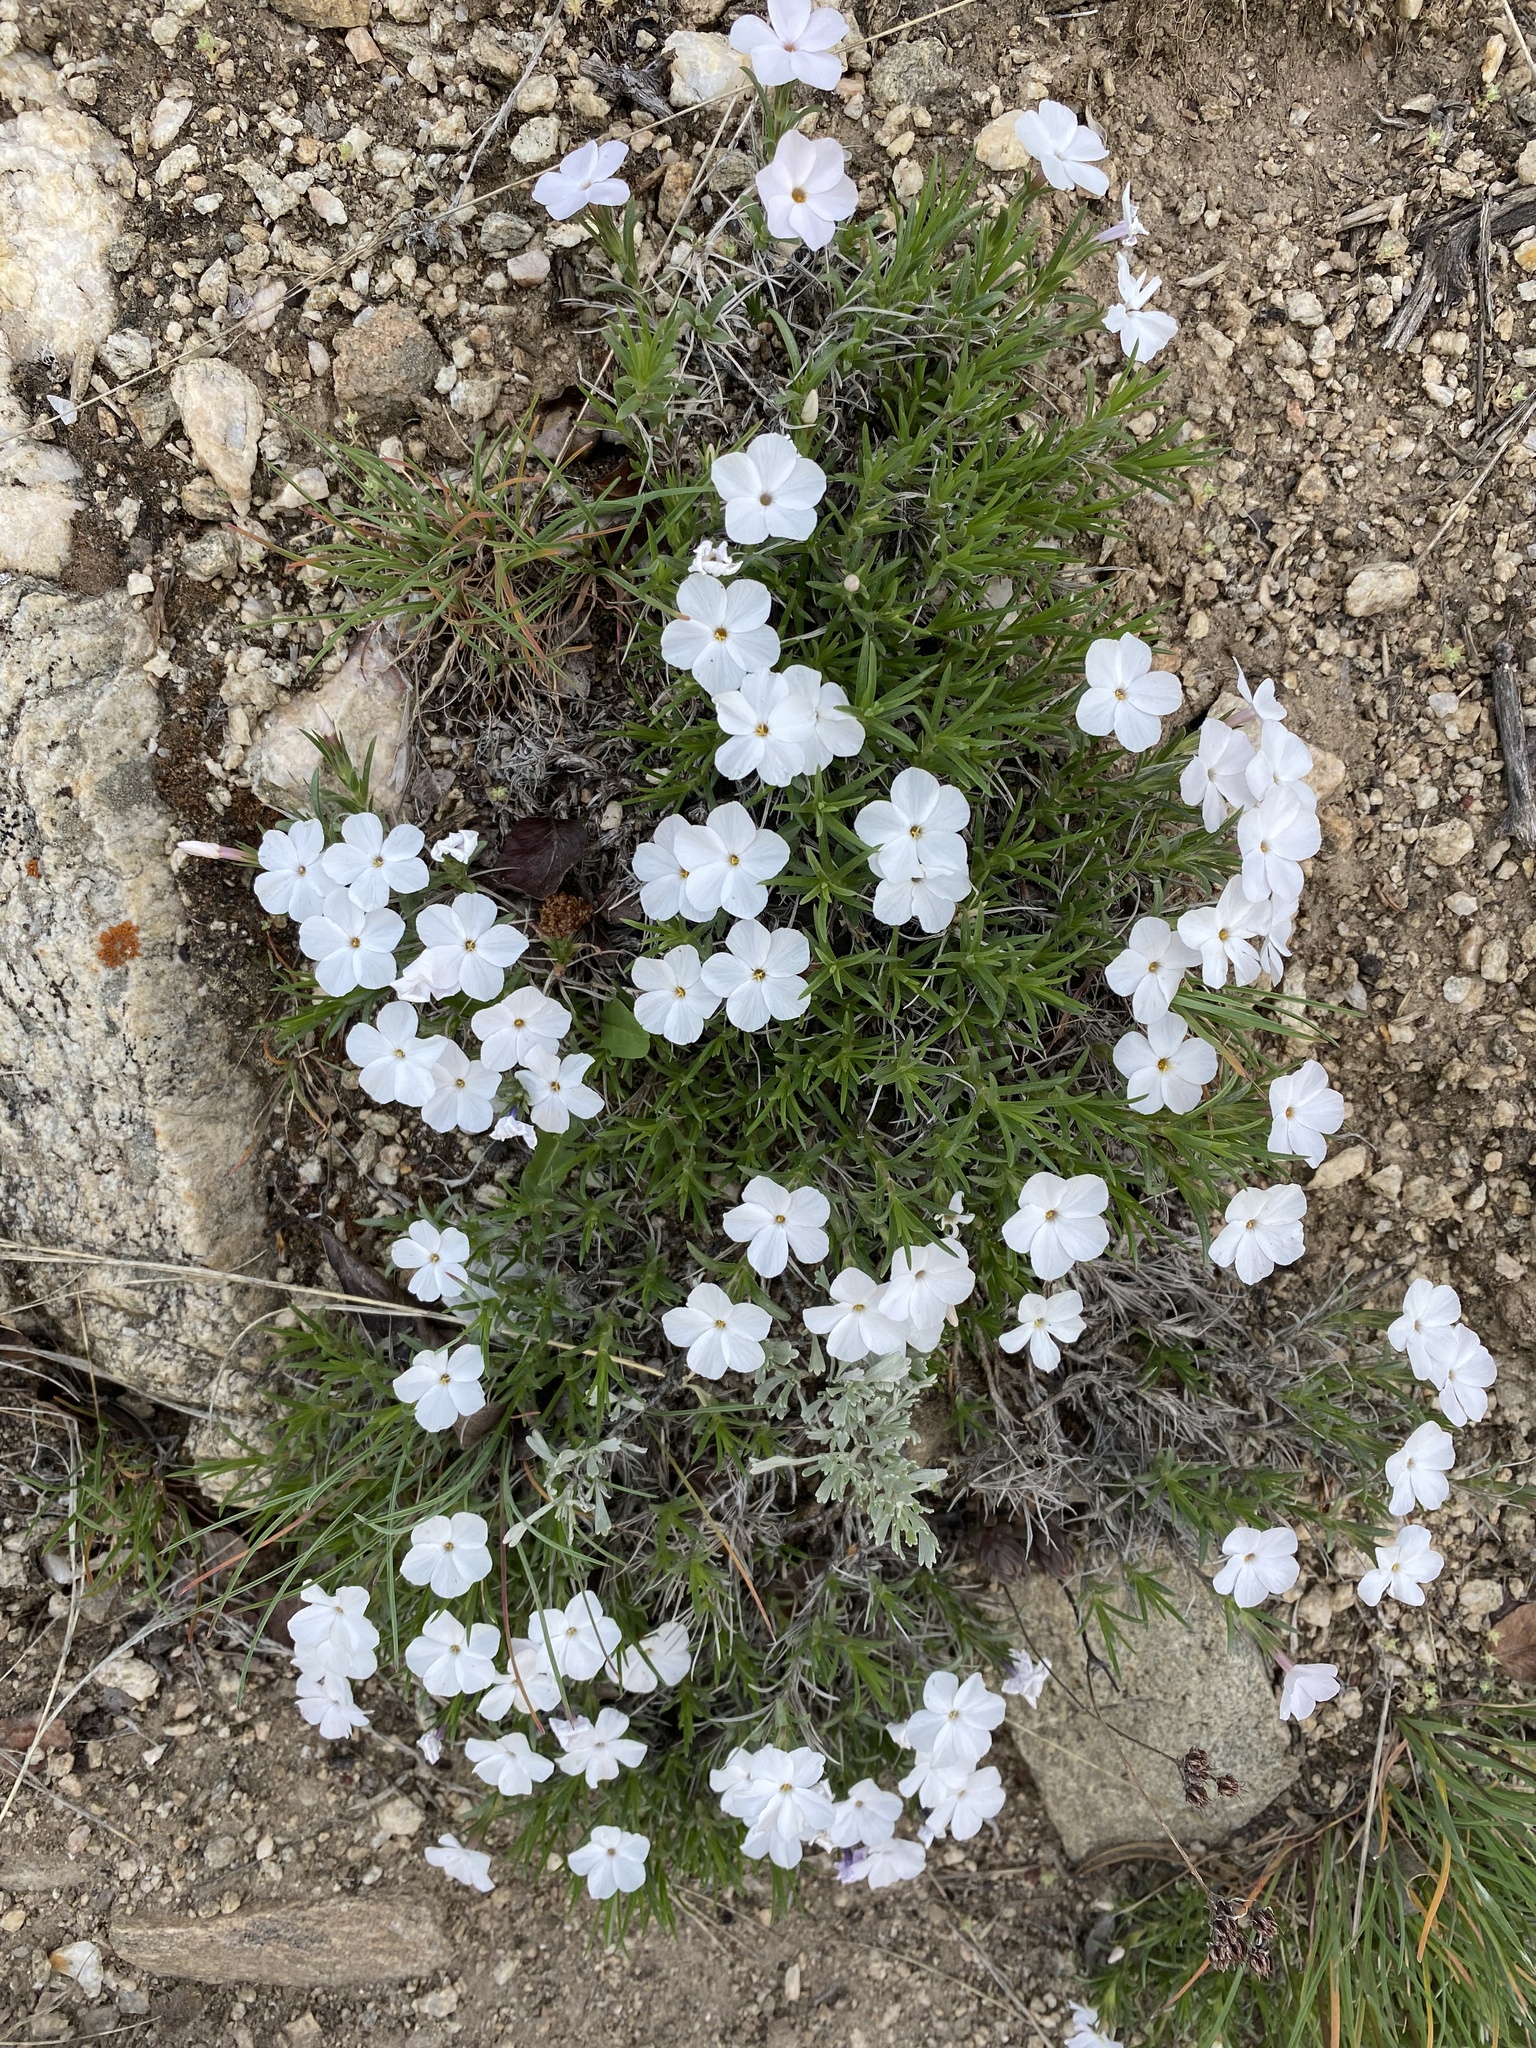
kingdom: Plantae
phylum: Tracheophyta
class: Magnoliopsida
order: Ericales
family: Polemoniaceae
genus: Phlox
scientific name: Phlox multiflora
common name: Rocky mountain phlox
